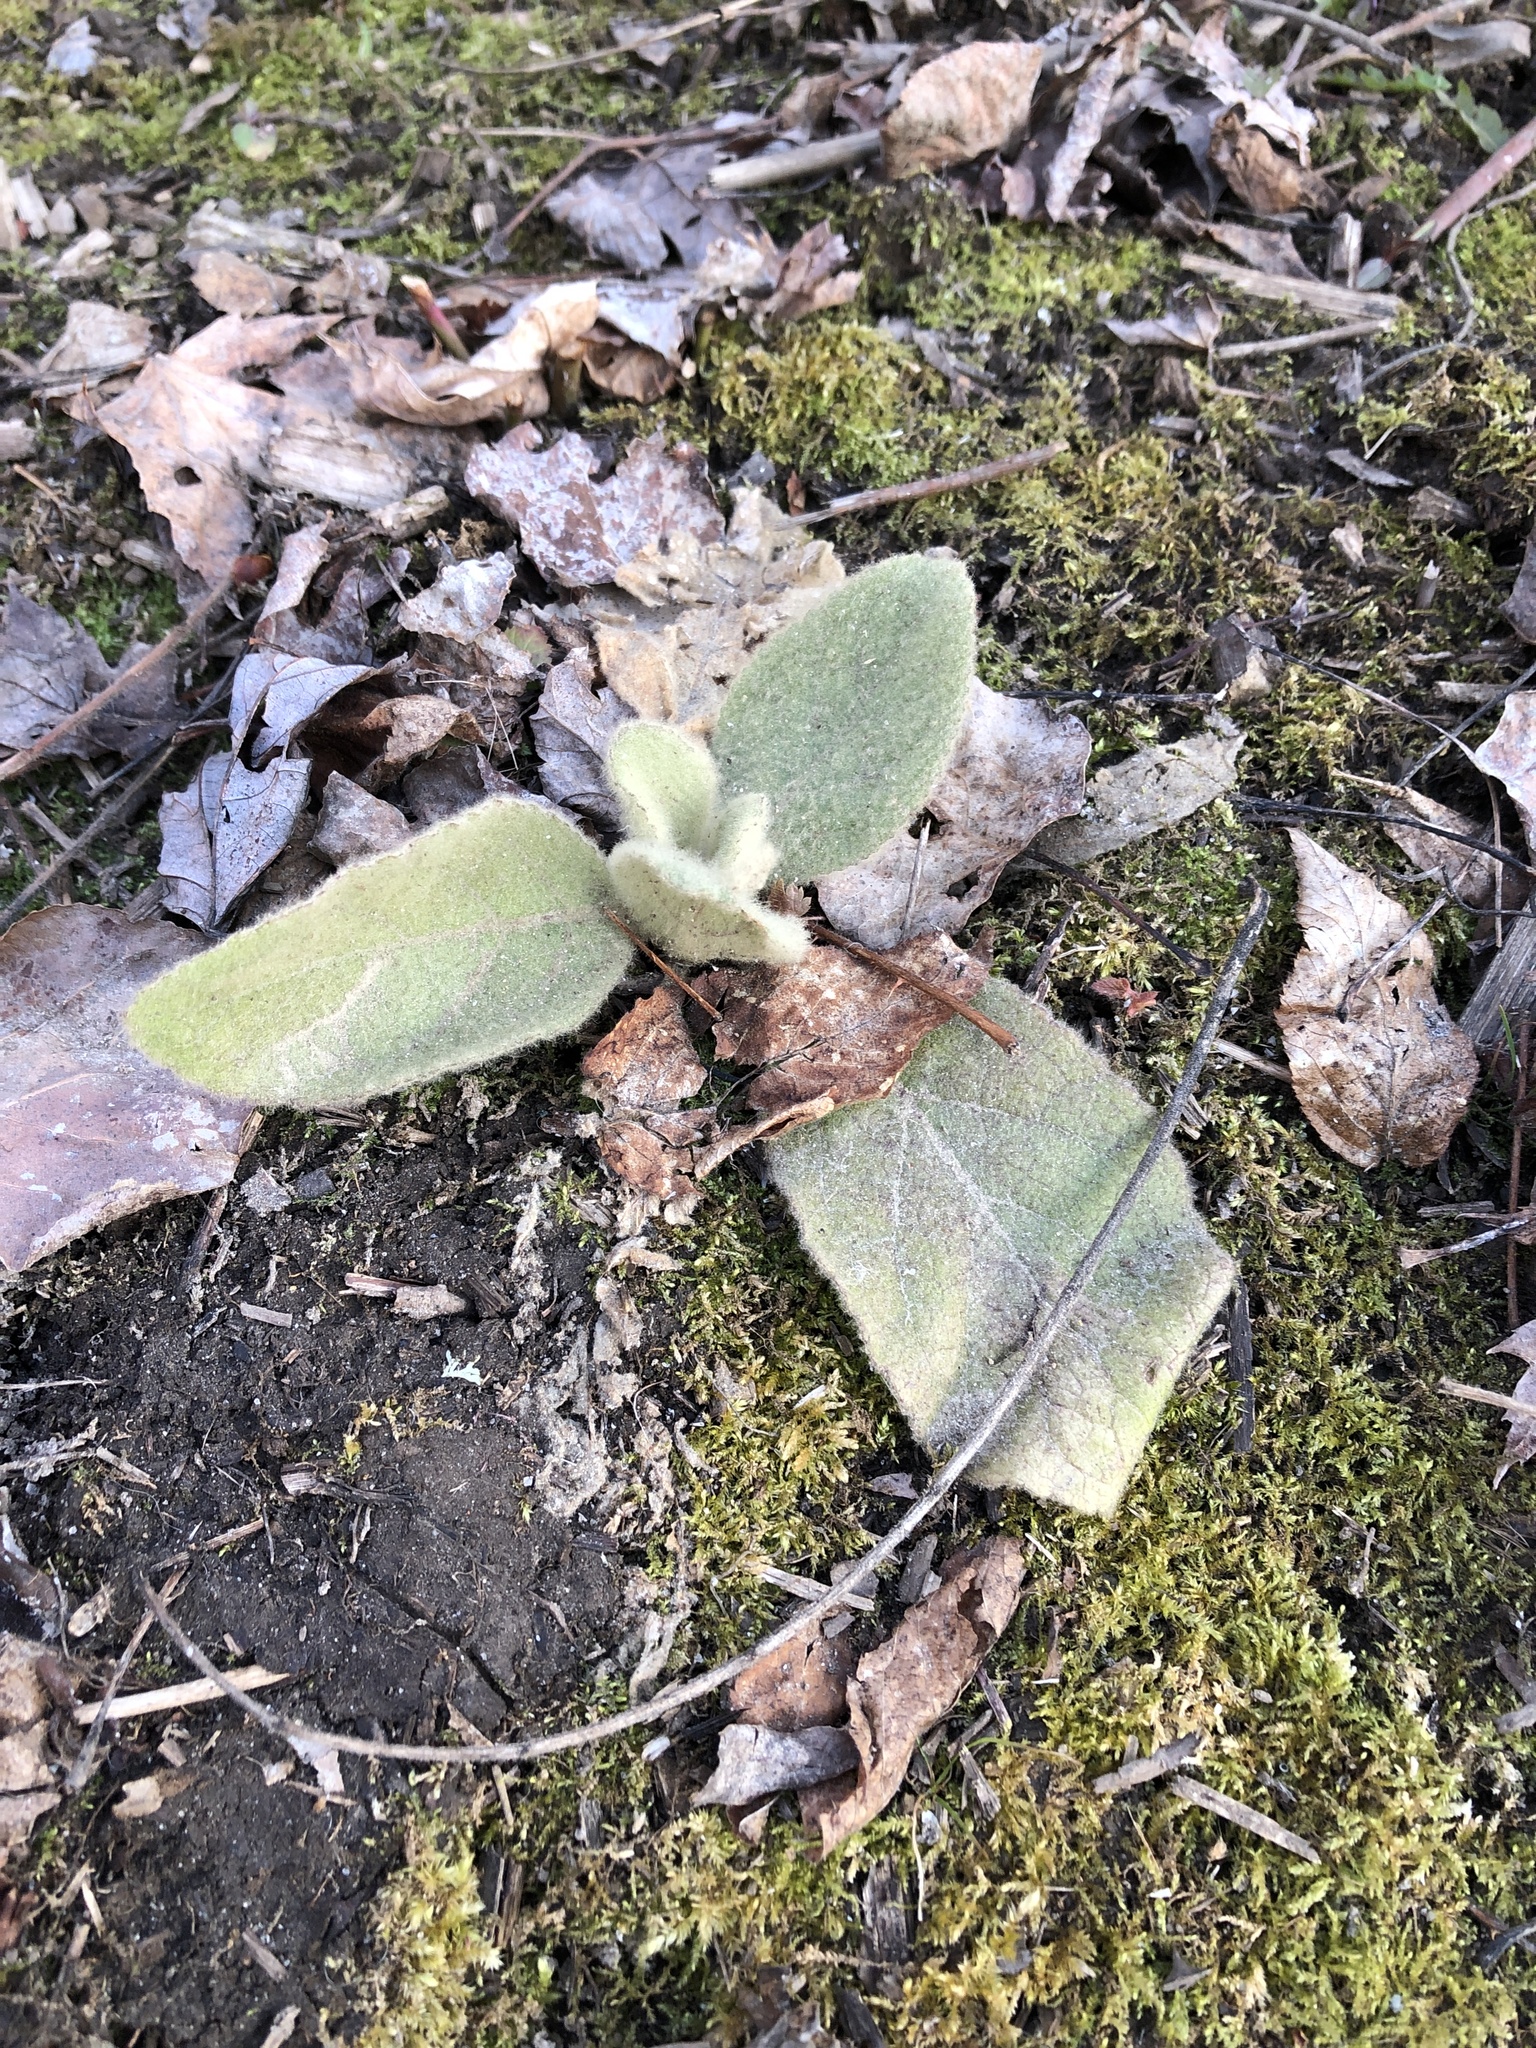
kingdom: Plantae
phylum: Tracheophyta
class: Magnoliopsida
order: Lamiales
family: Scrophulariaceae
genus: Verbascum
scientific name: Verbascum thapsus
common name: Common mullein
